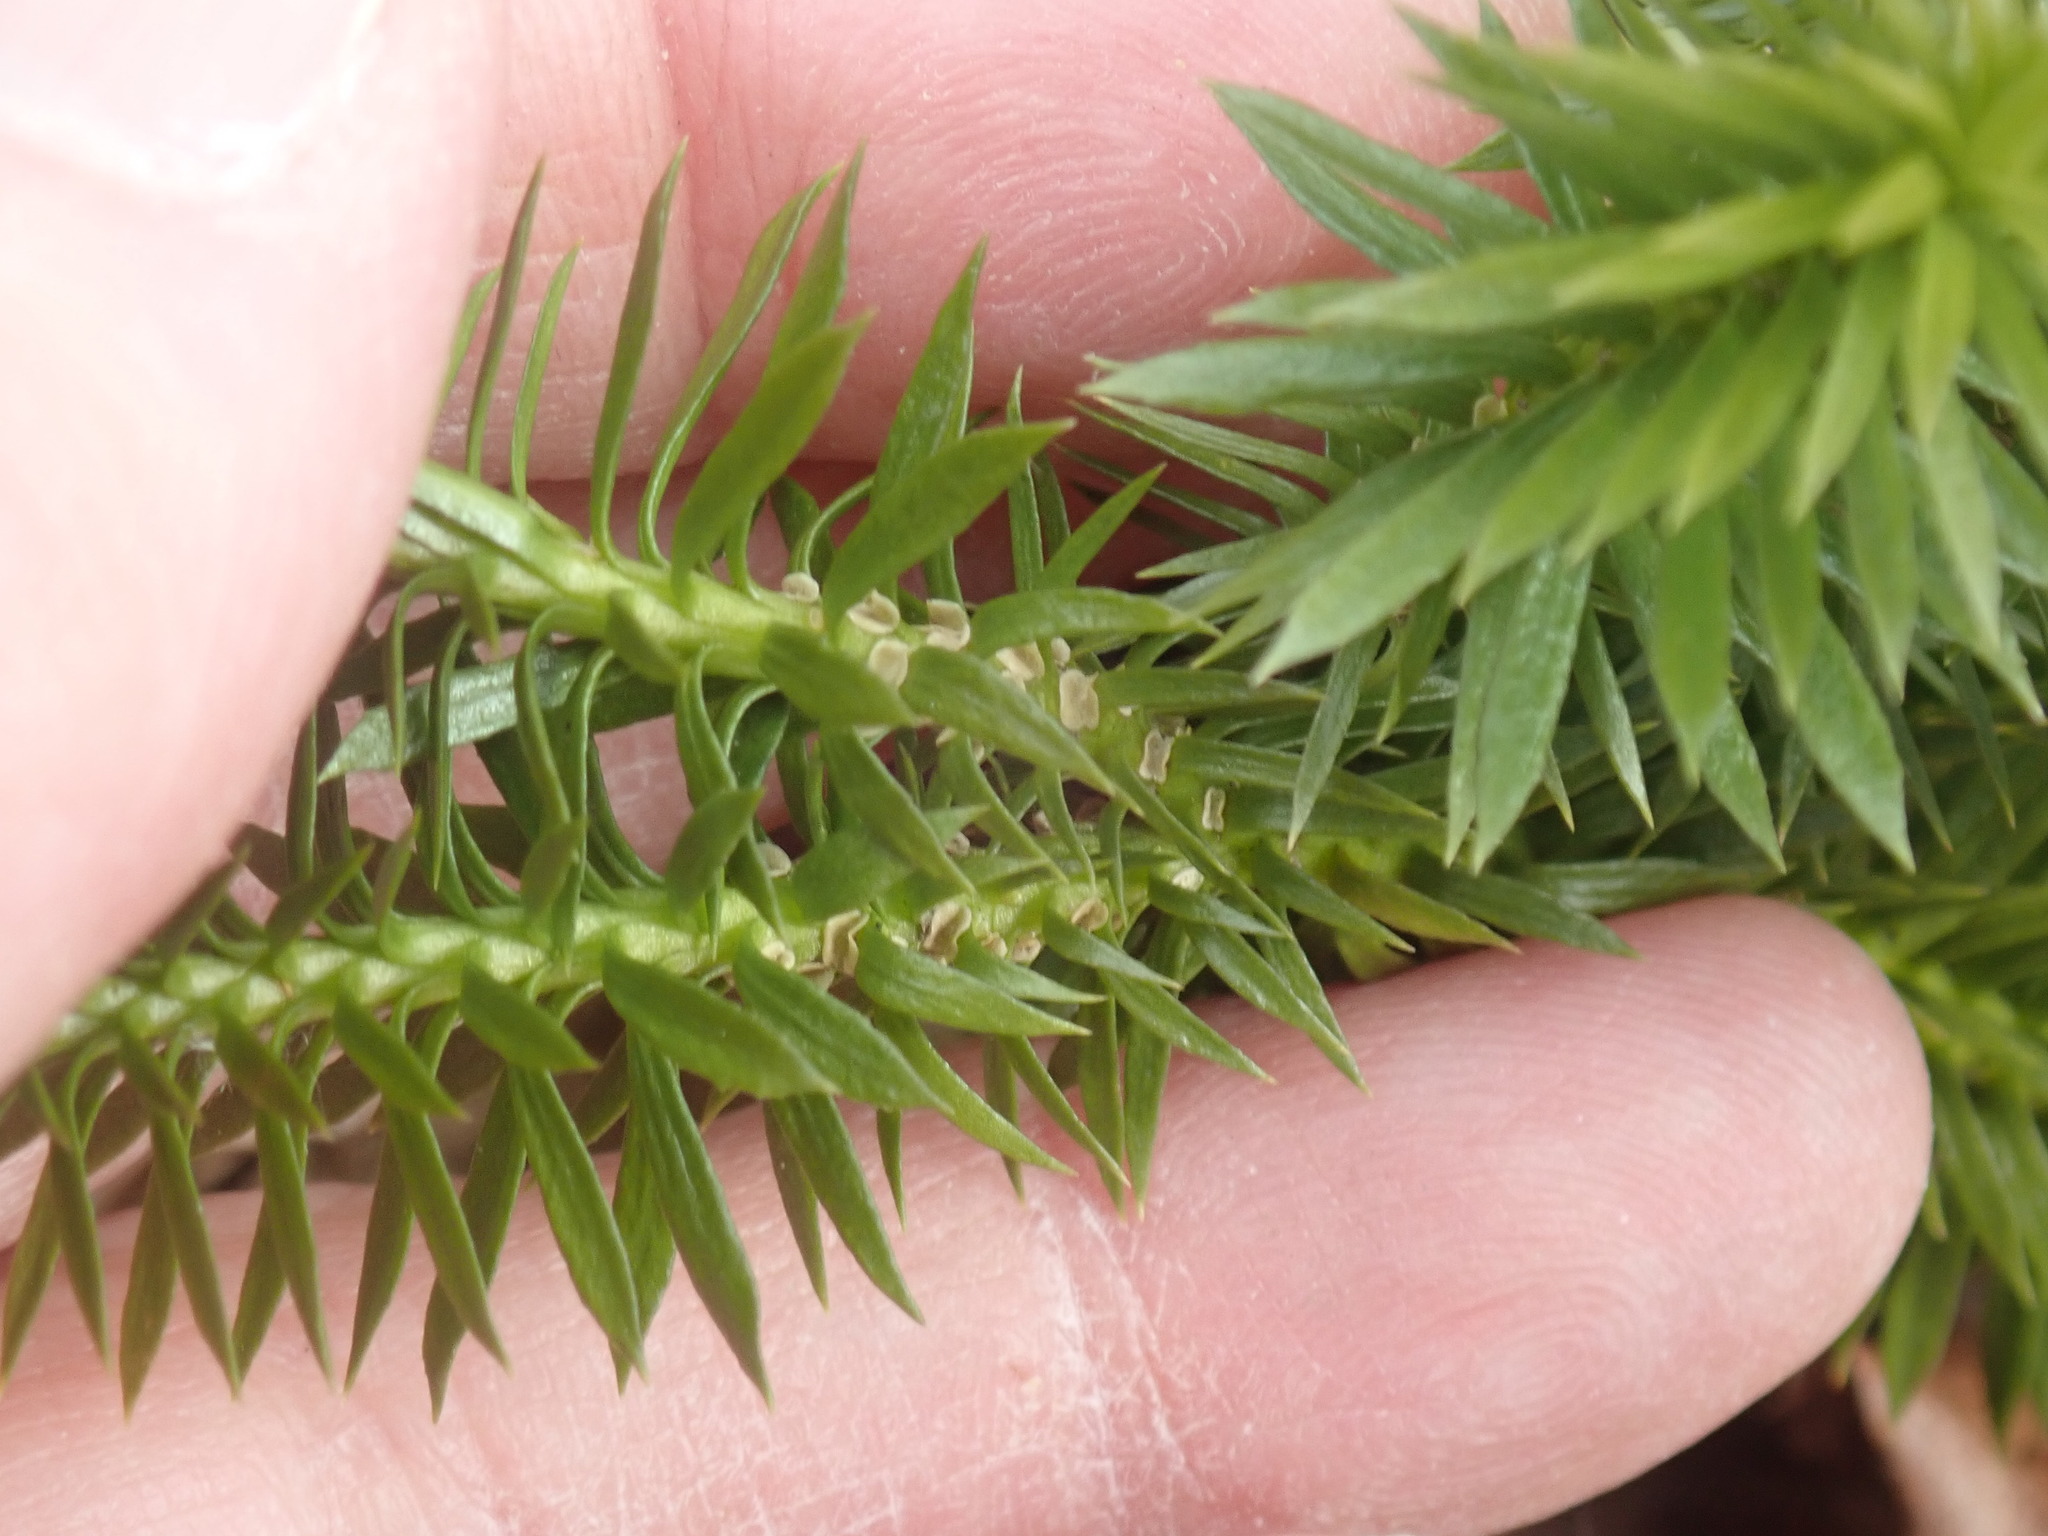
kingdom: Plantae
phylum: Tracheophyta
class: Lycopodiopsida
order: Lycopodiales
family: Lycopodiaceae
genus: Huperzia
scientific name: Huperzia lucidula
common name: Shining clubmoss
